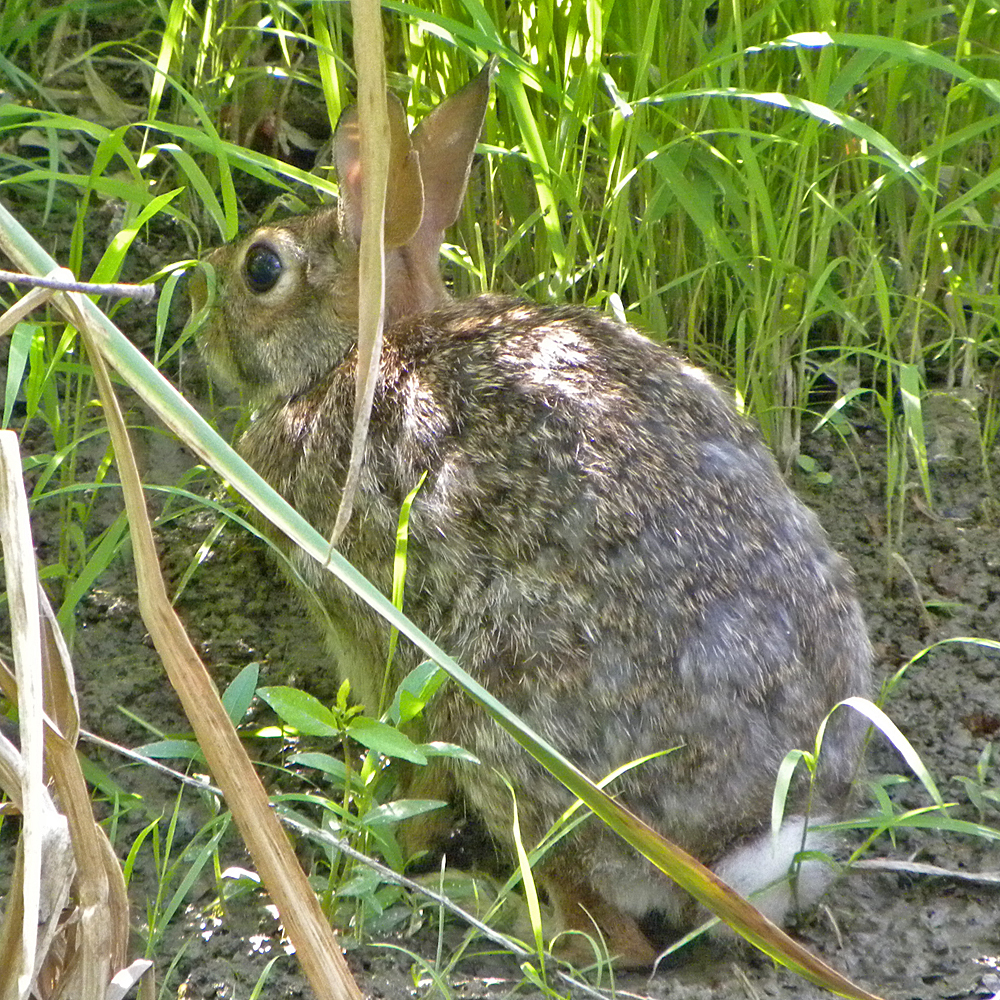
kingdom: Animalia
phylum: Chordata
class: Mammalia
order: Lagomorpha
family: Leporidae
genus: Sylvilagus
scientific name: Sylvilagus floridanus
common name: Eastern cottontail
